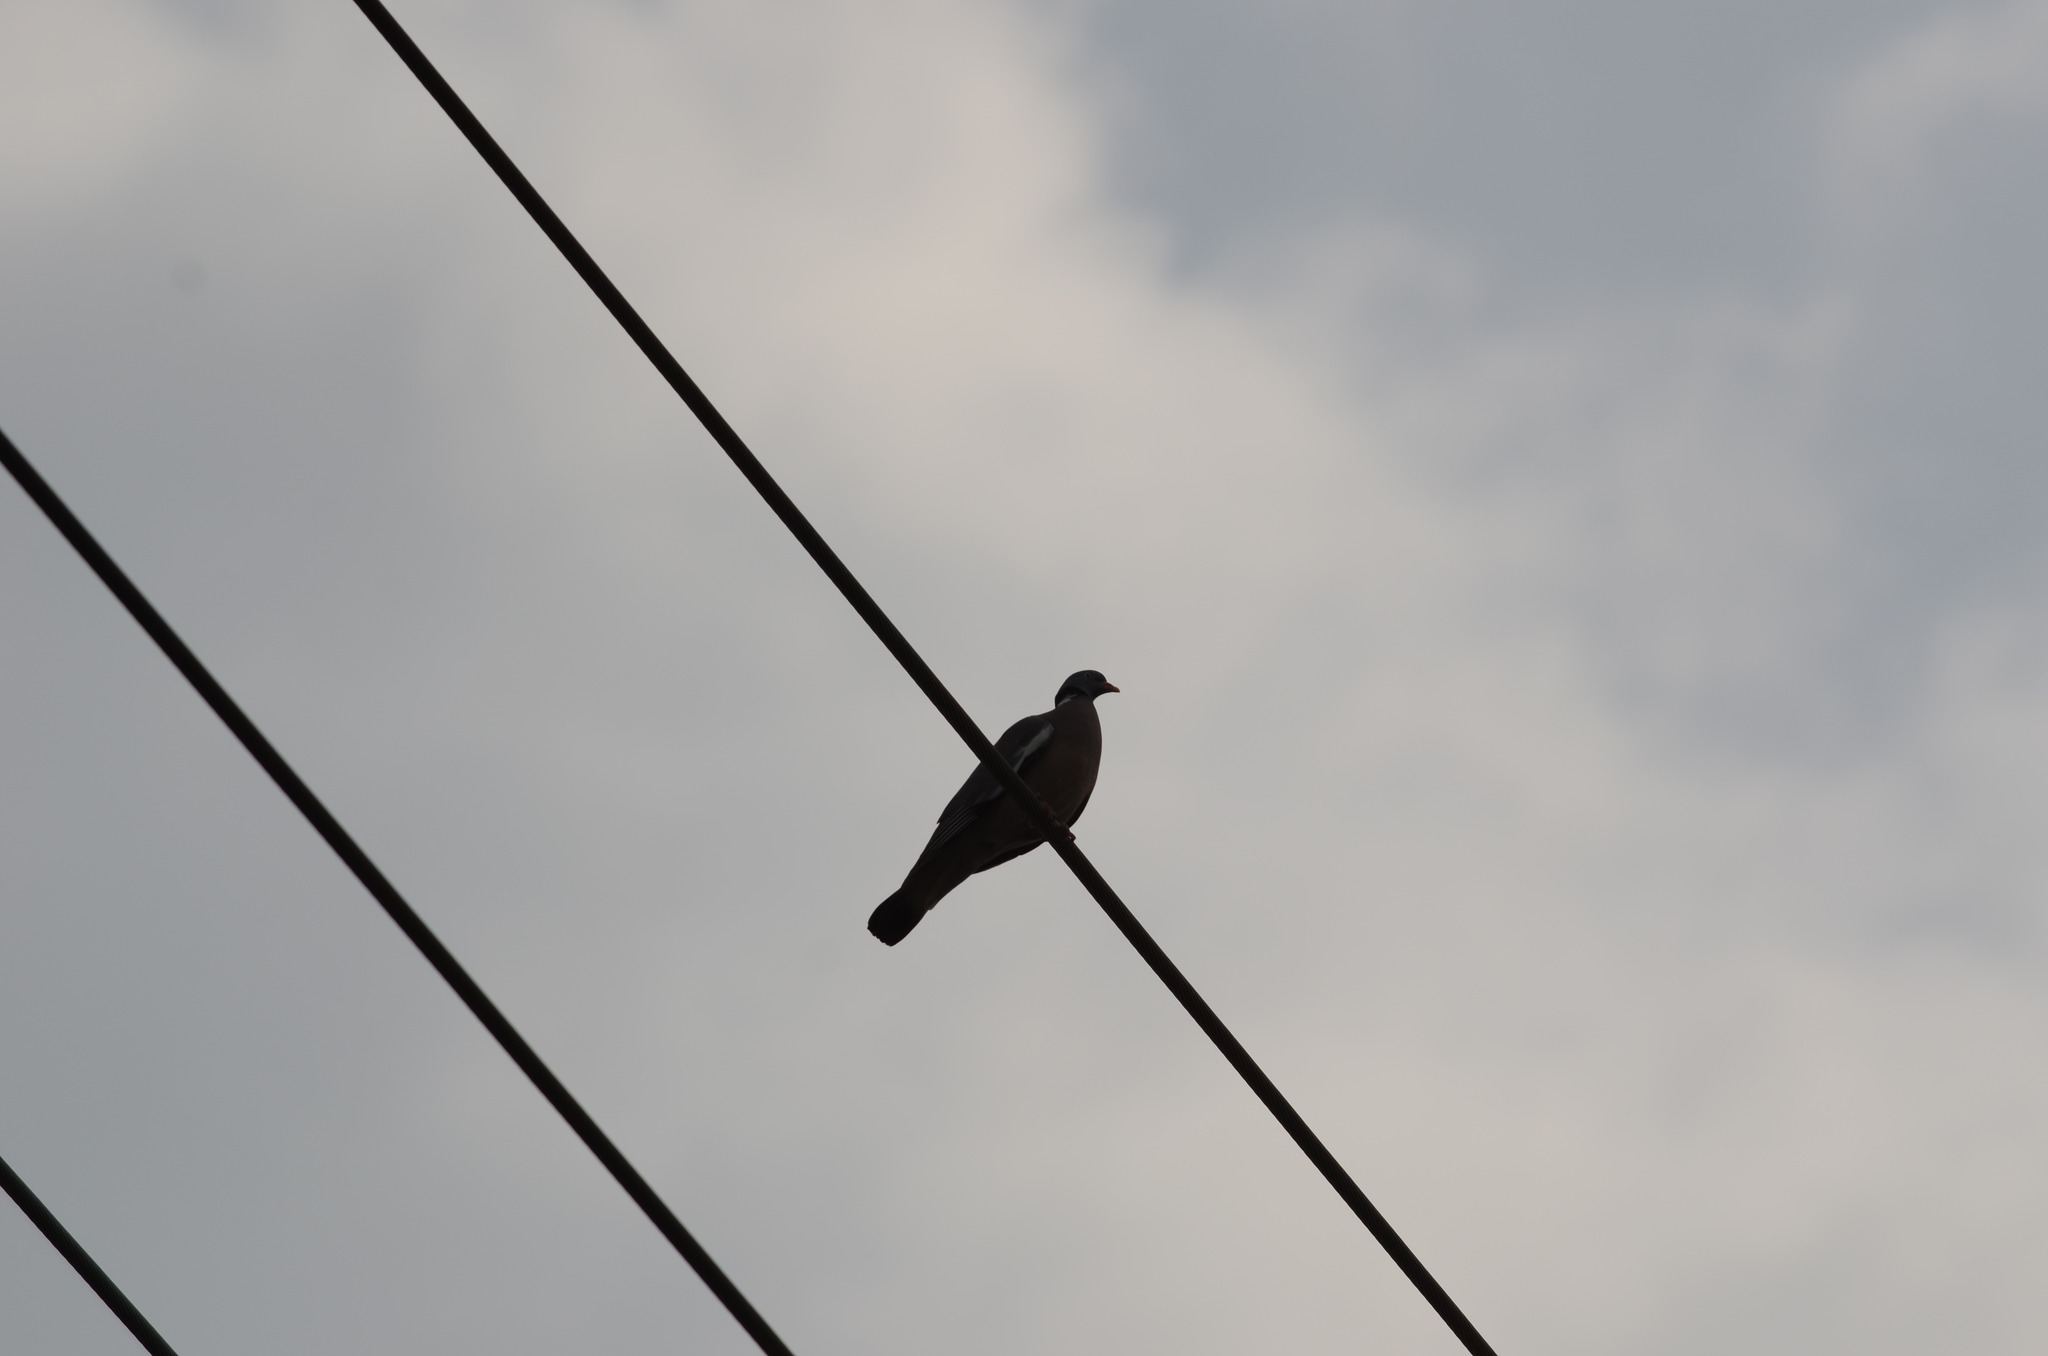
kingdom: Animalia
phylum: Chordata
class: Aves
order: Columbiformes
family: Columbidae
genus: Columba
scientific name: Columba palumbus
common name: Common wood pigeon
